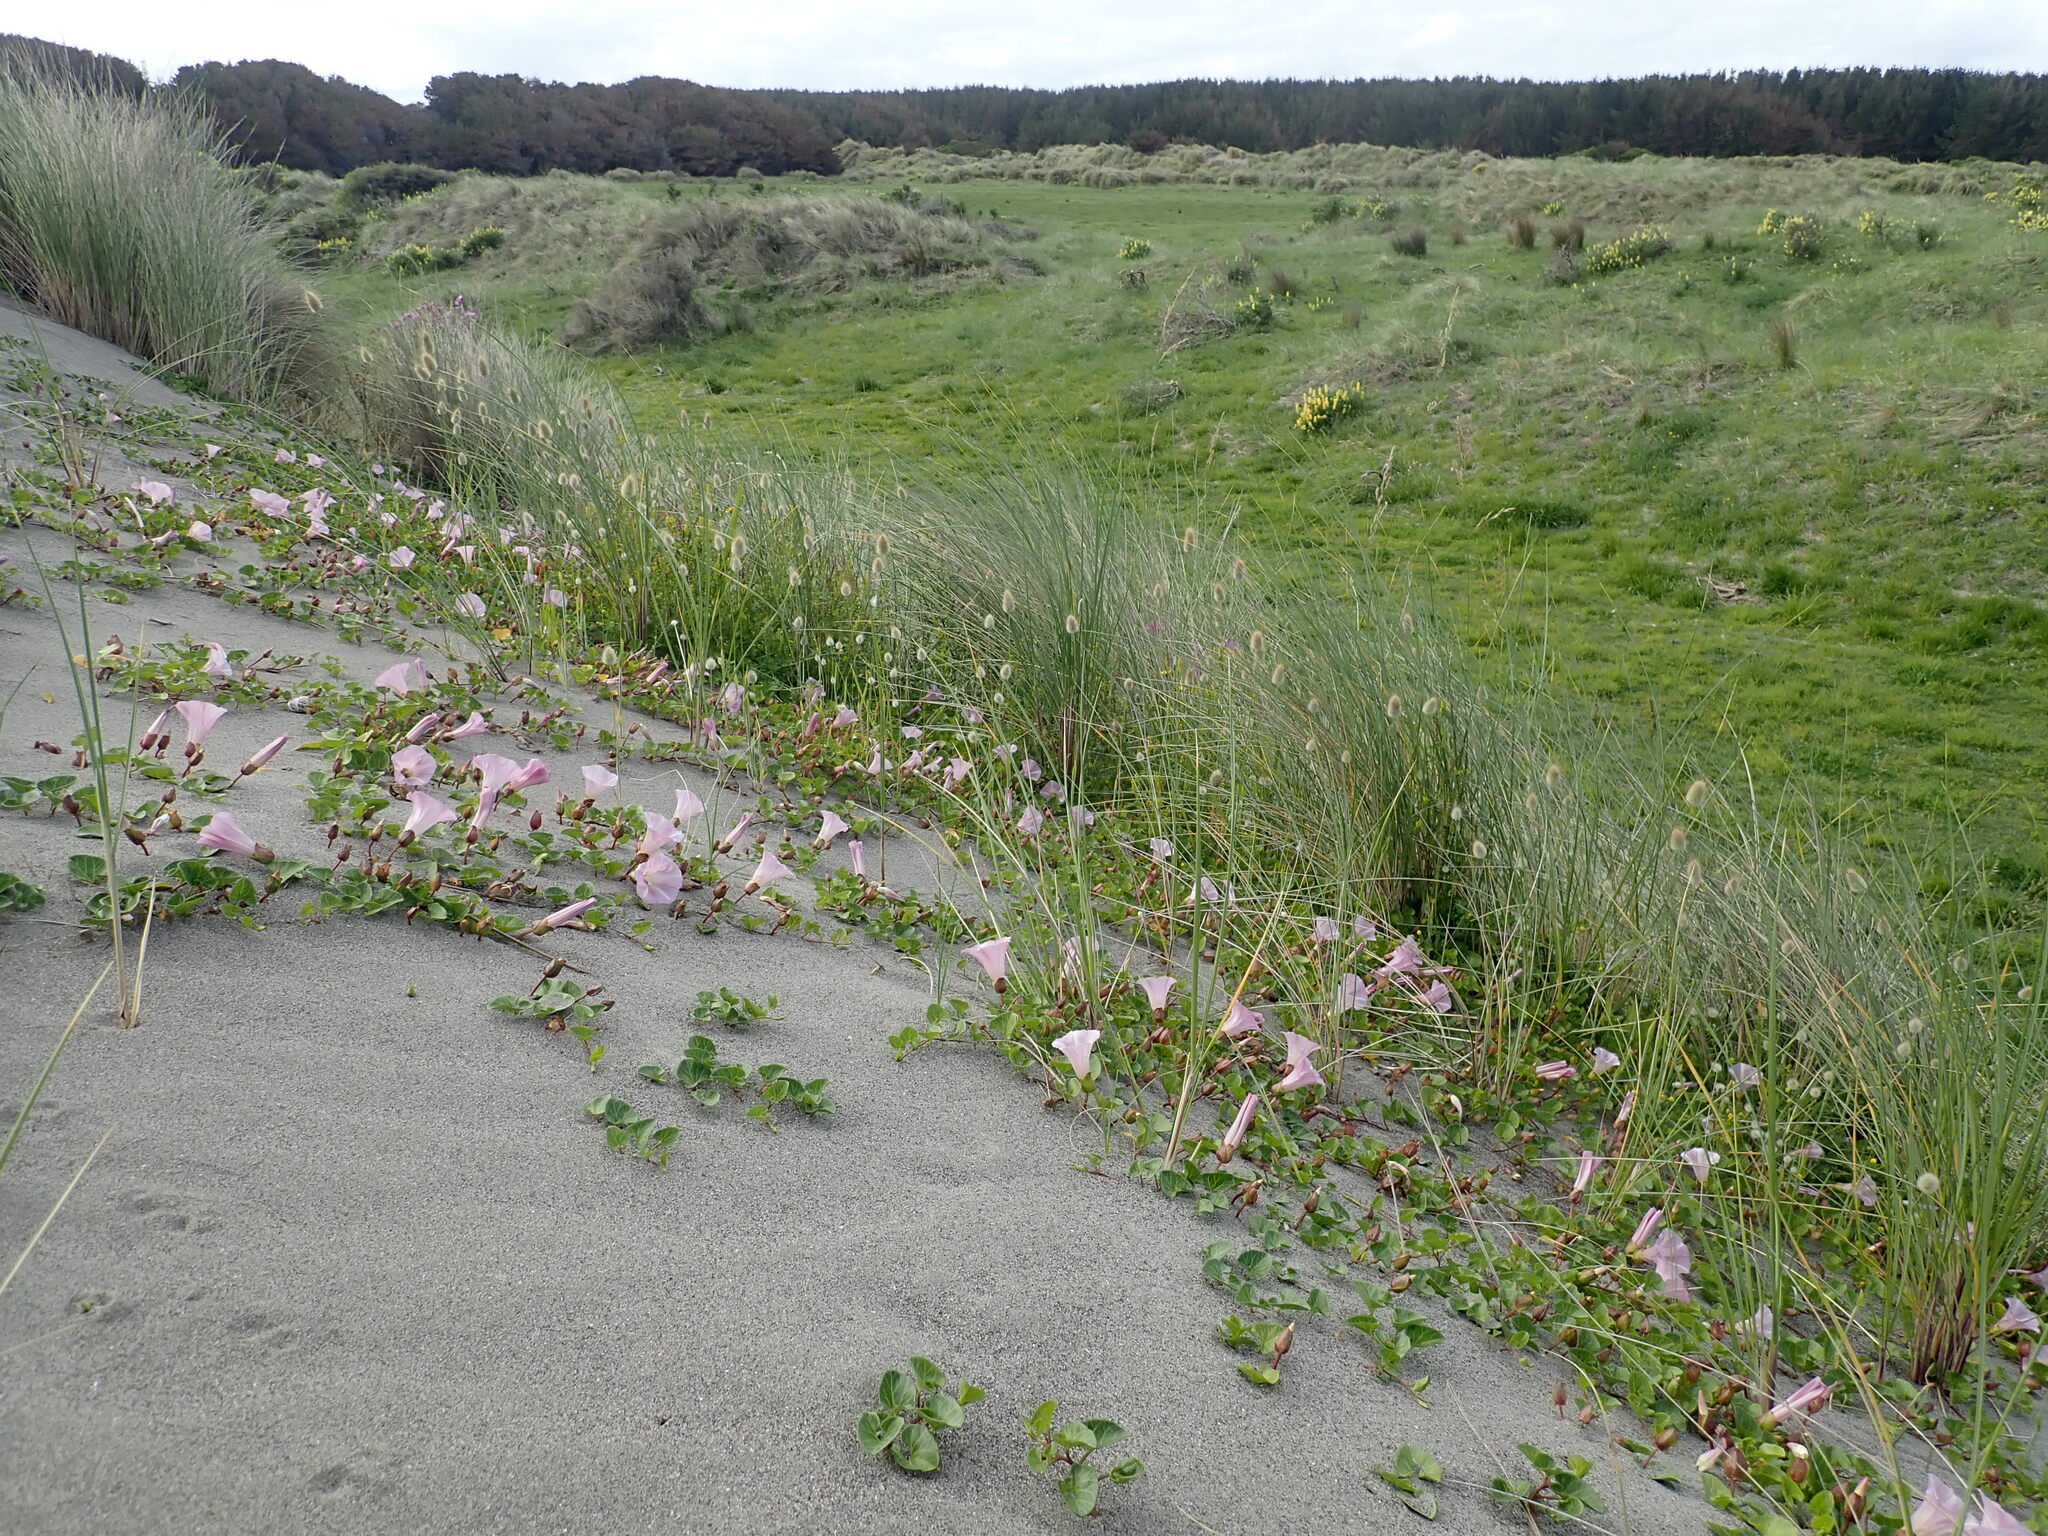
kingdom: Plantae
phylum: Tracheophyta
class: Magnoliopsida
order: Solanales
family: Convolvulaceae
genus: Calystegia
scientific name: Calystegia soldanella
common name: Sea bindweed
